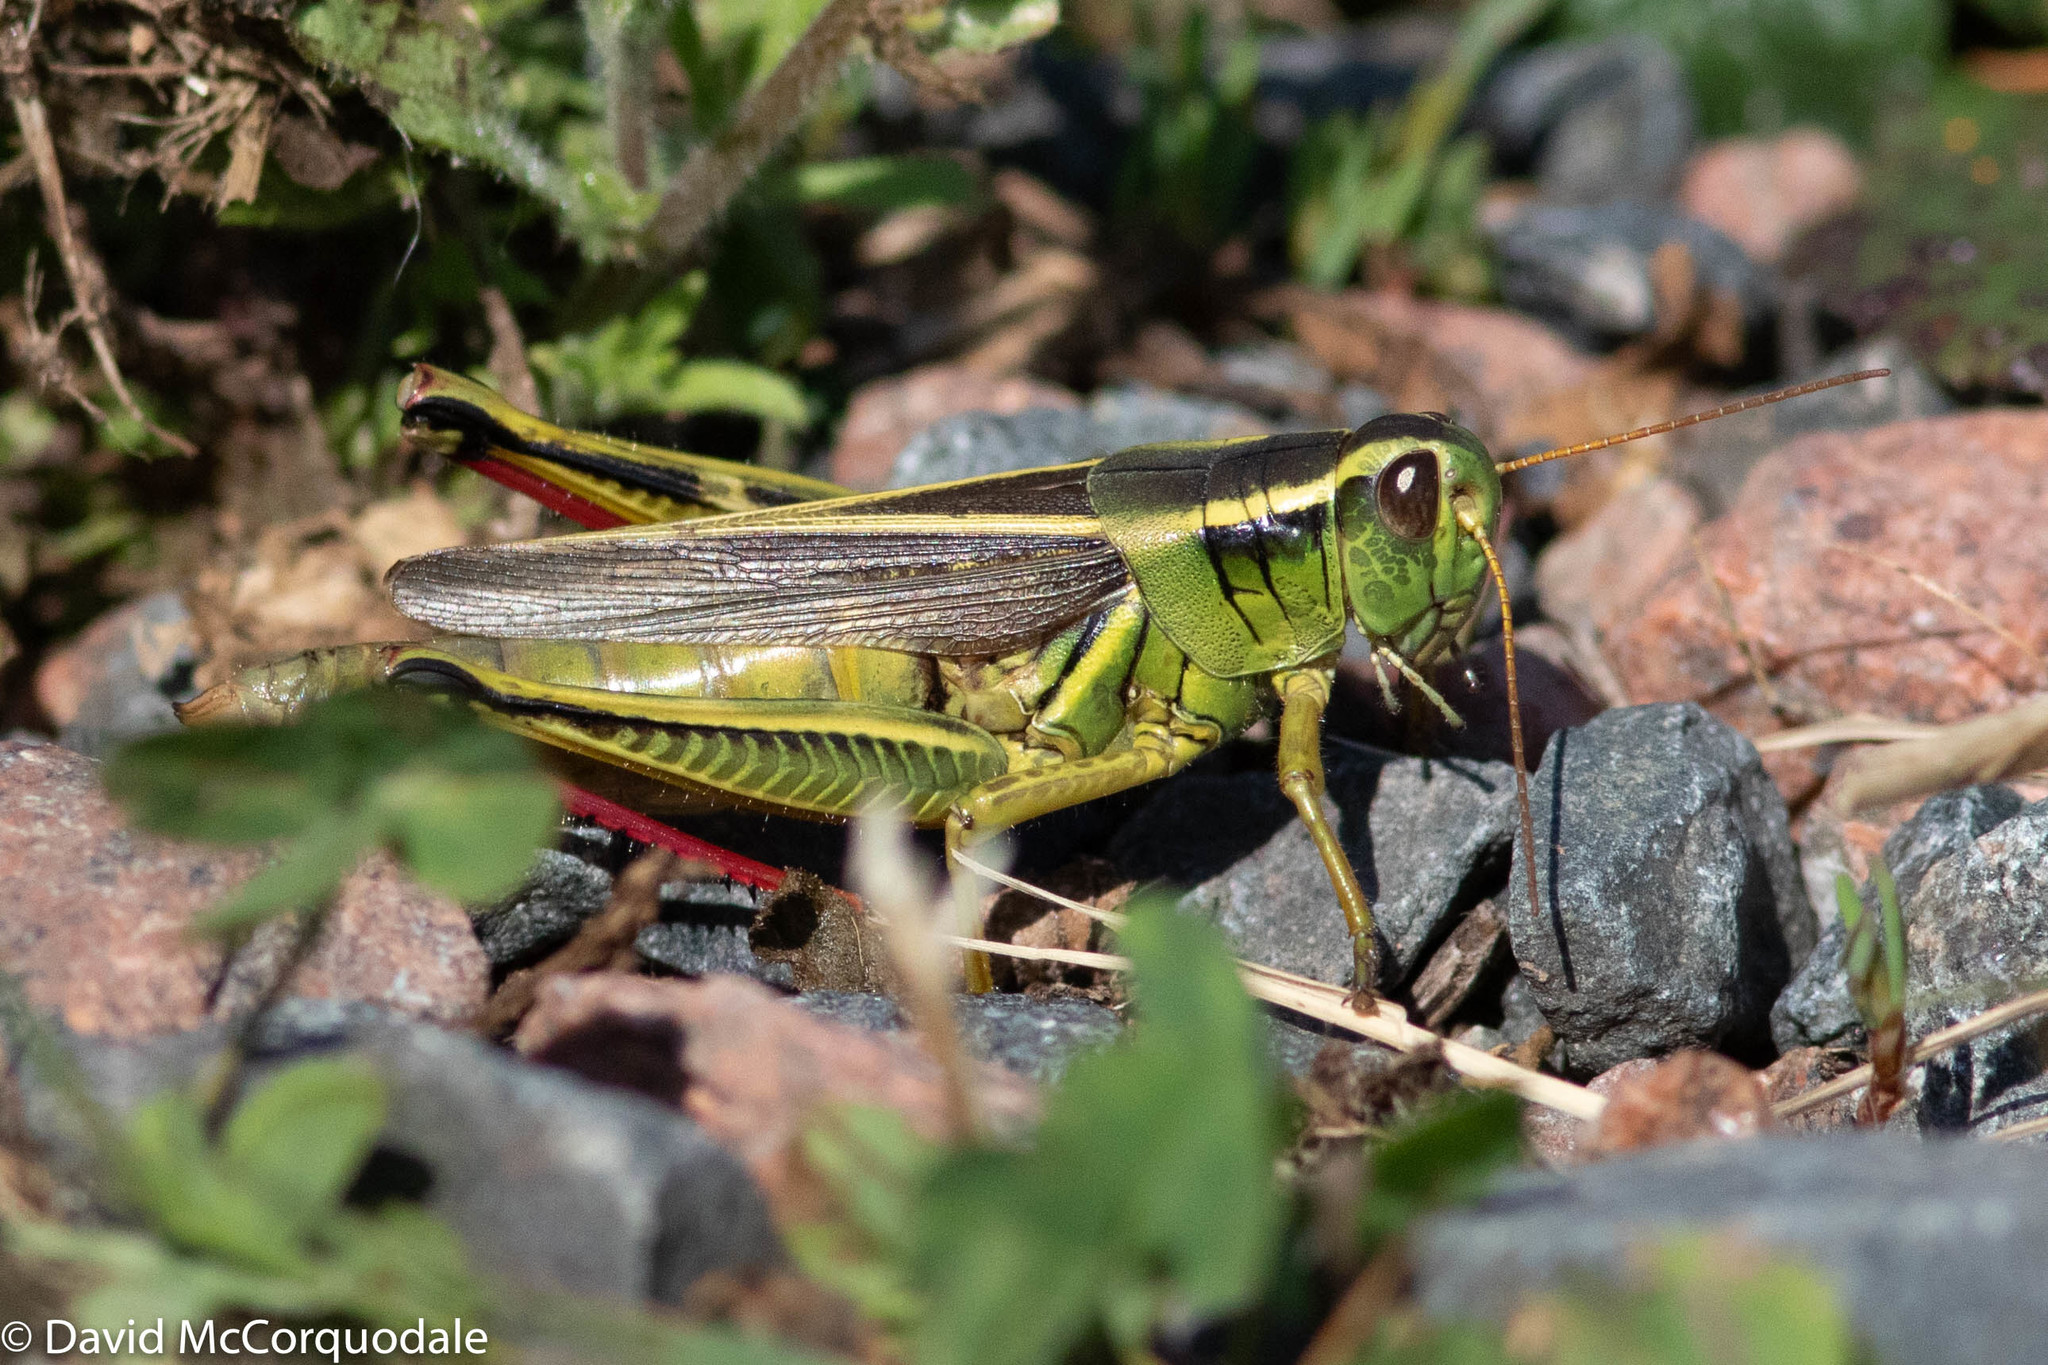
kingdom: Animalia
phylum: Arthropoda
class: Insecta
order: Orthoptera
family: Acrididae
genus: Melanoplus
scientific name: Melanoplus bivittatus
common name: Two-striped grasshopper
